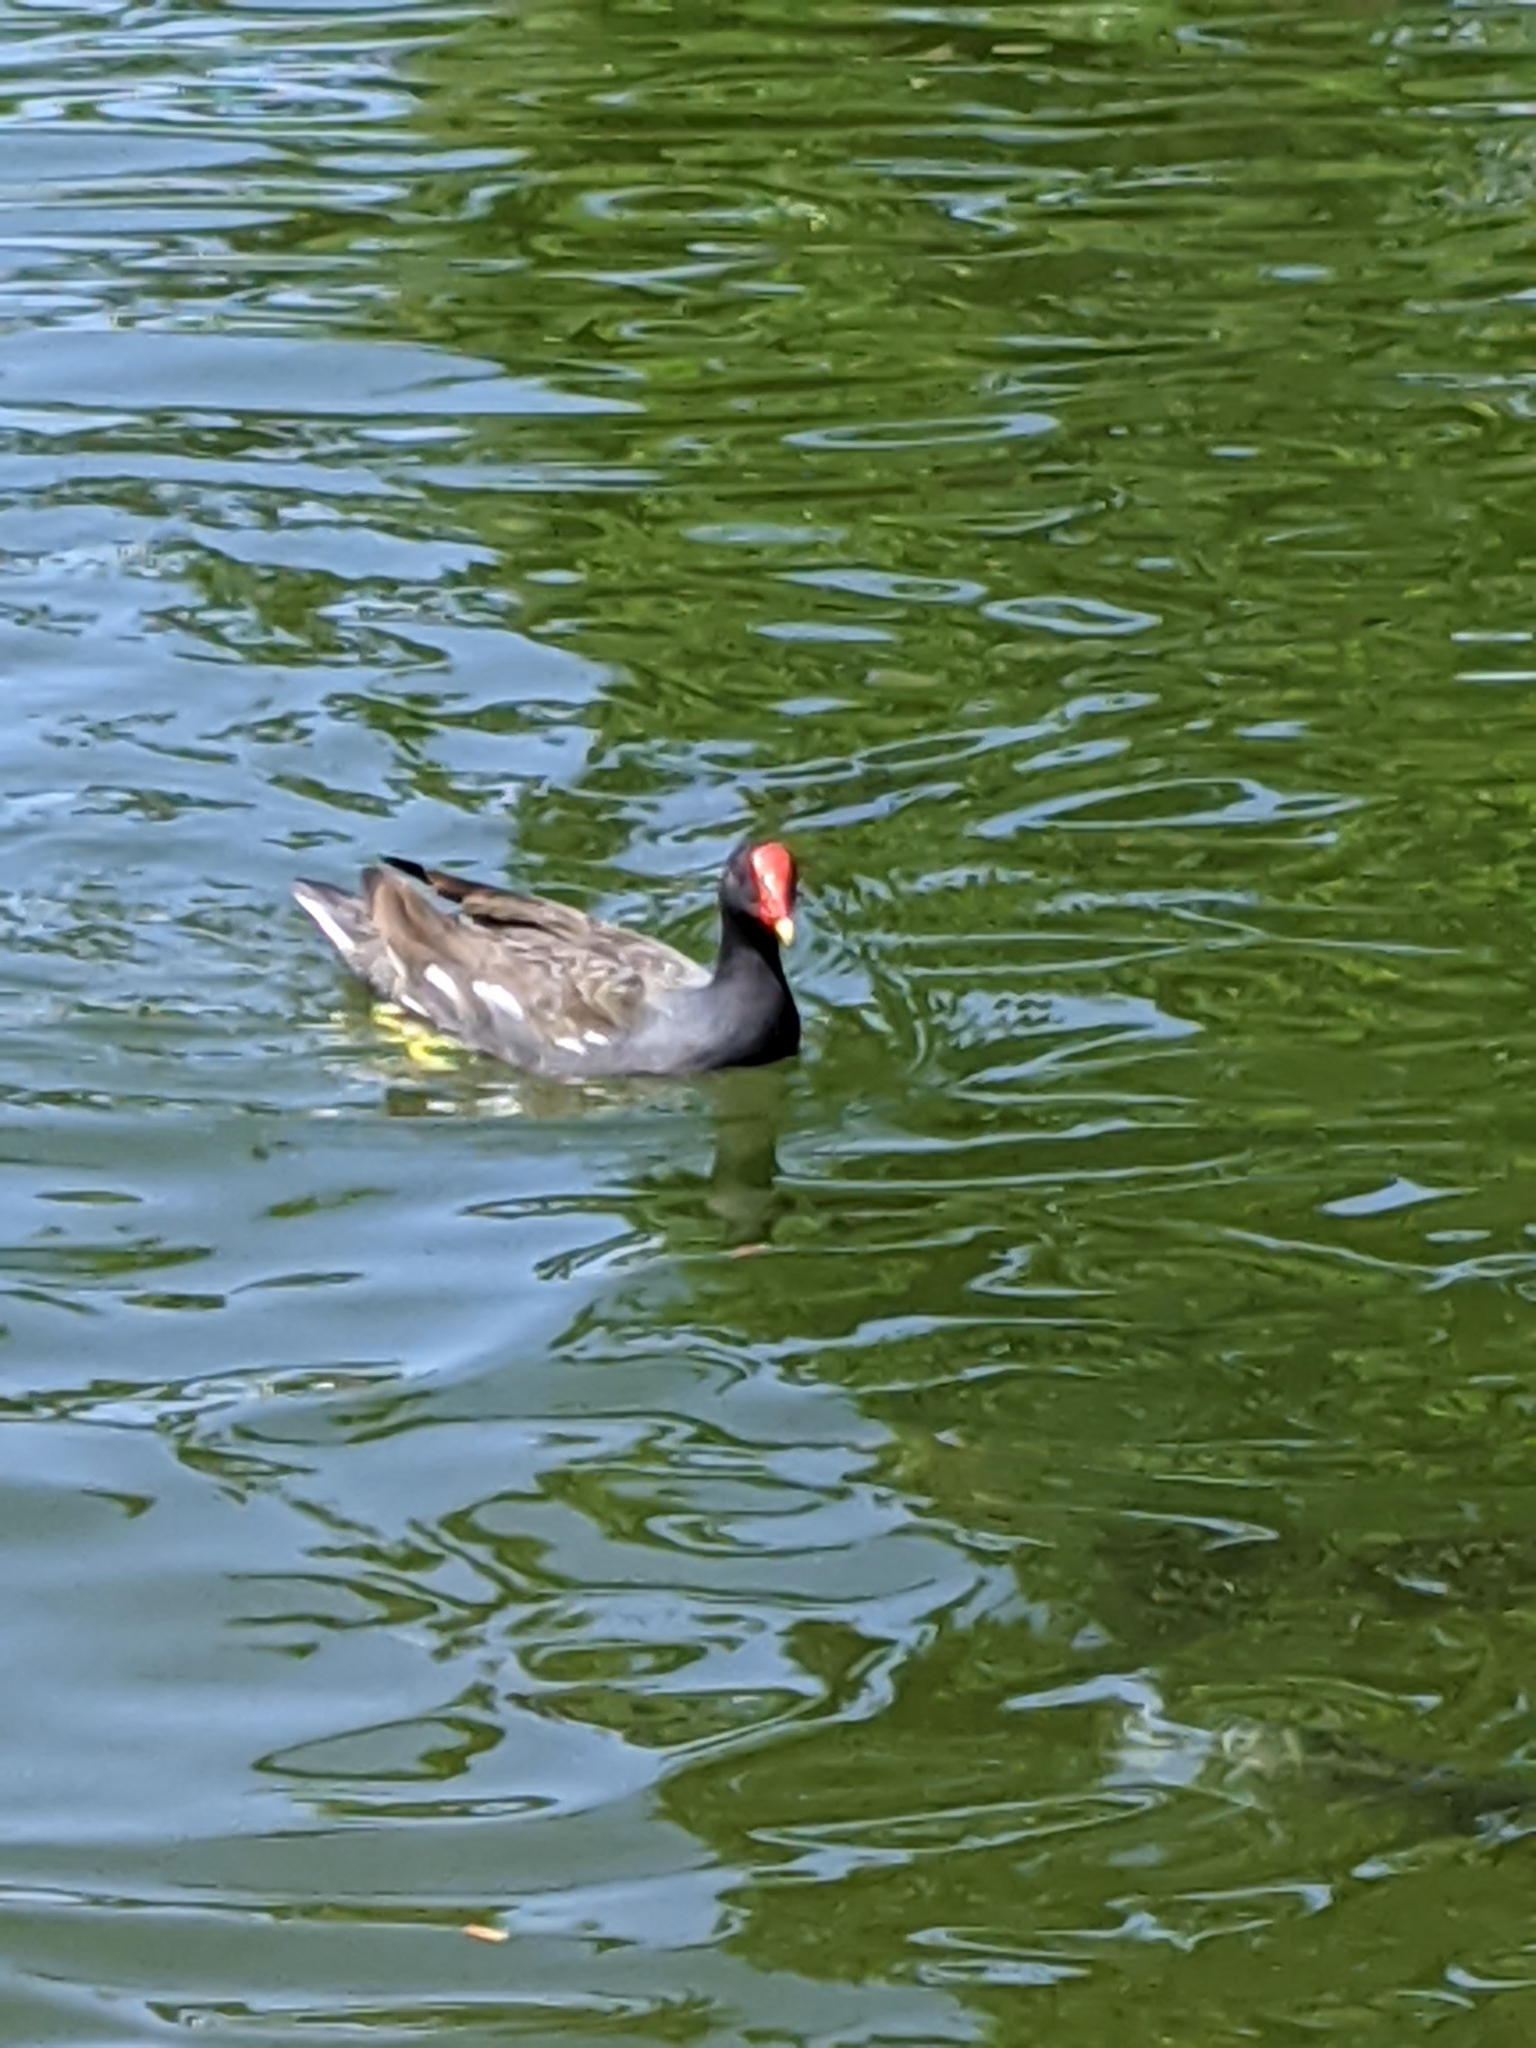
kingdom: Animalia
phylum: Chordata
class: Aves
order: Gruiformes
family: Rallidae
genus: Gallinula
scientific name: Gallinula chloropus
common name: Common moorhen
